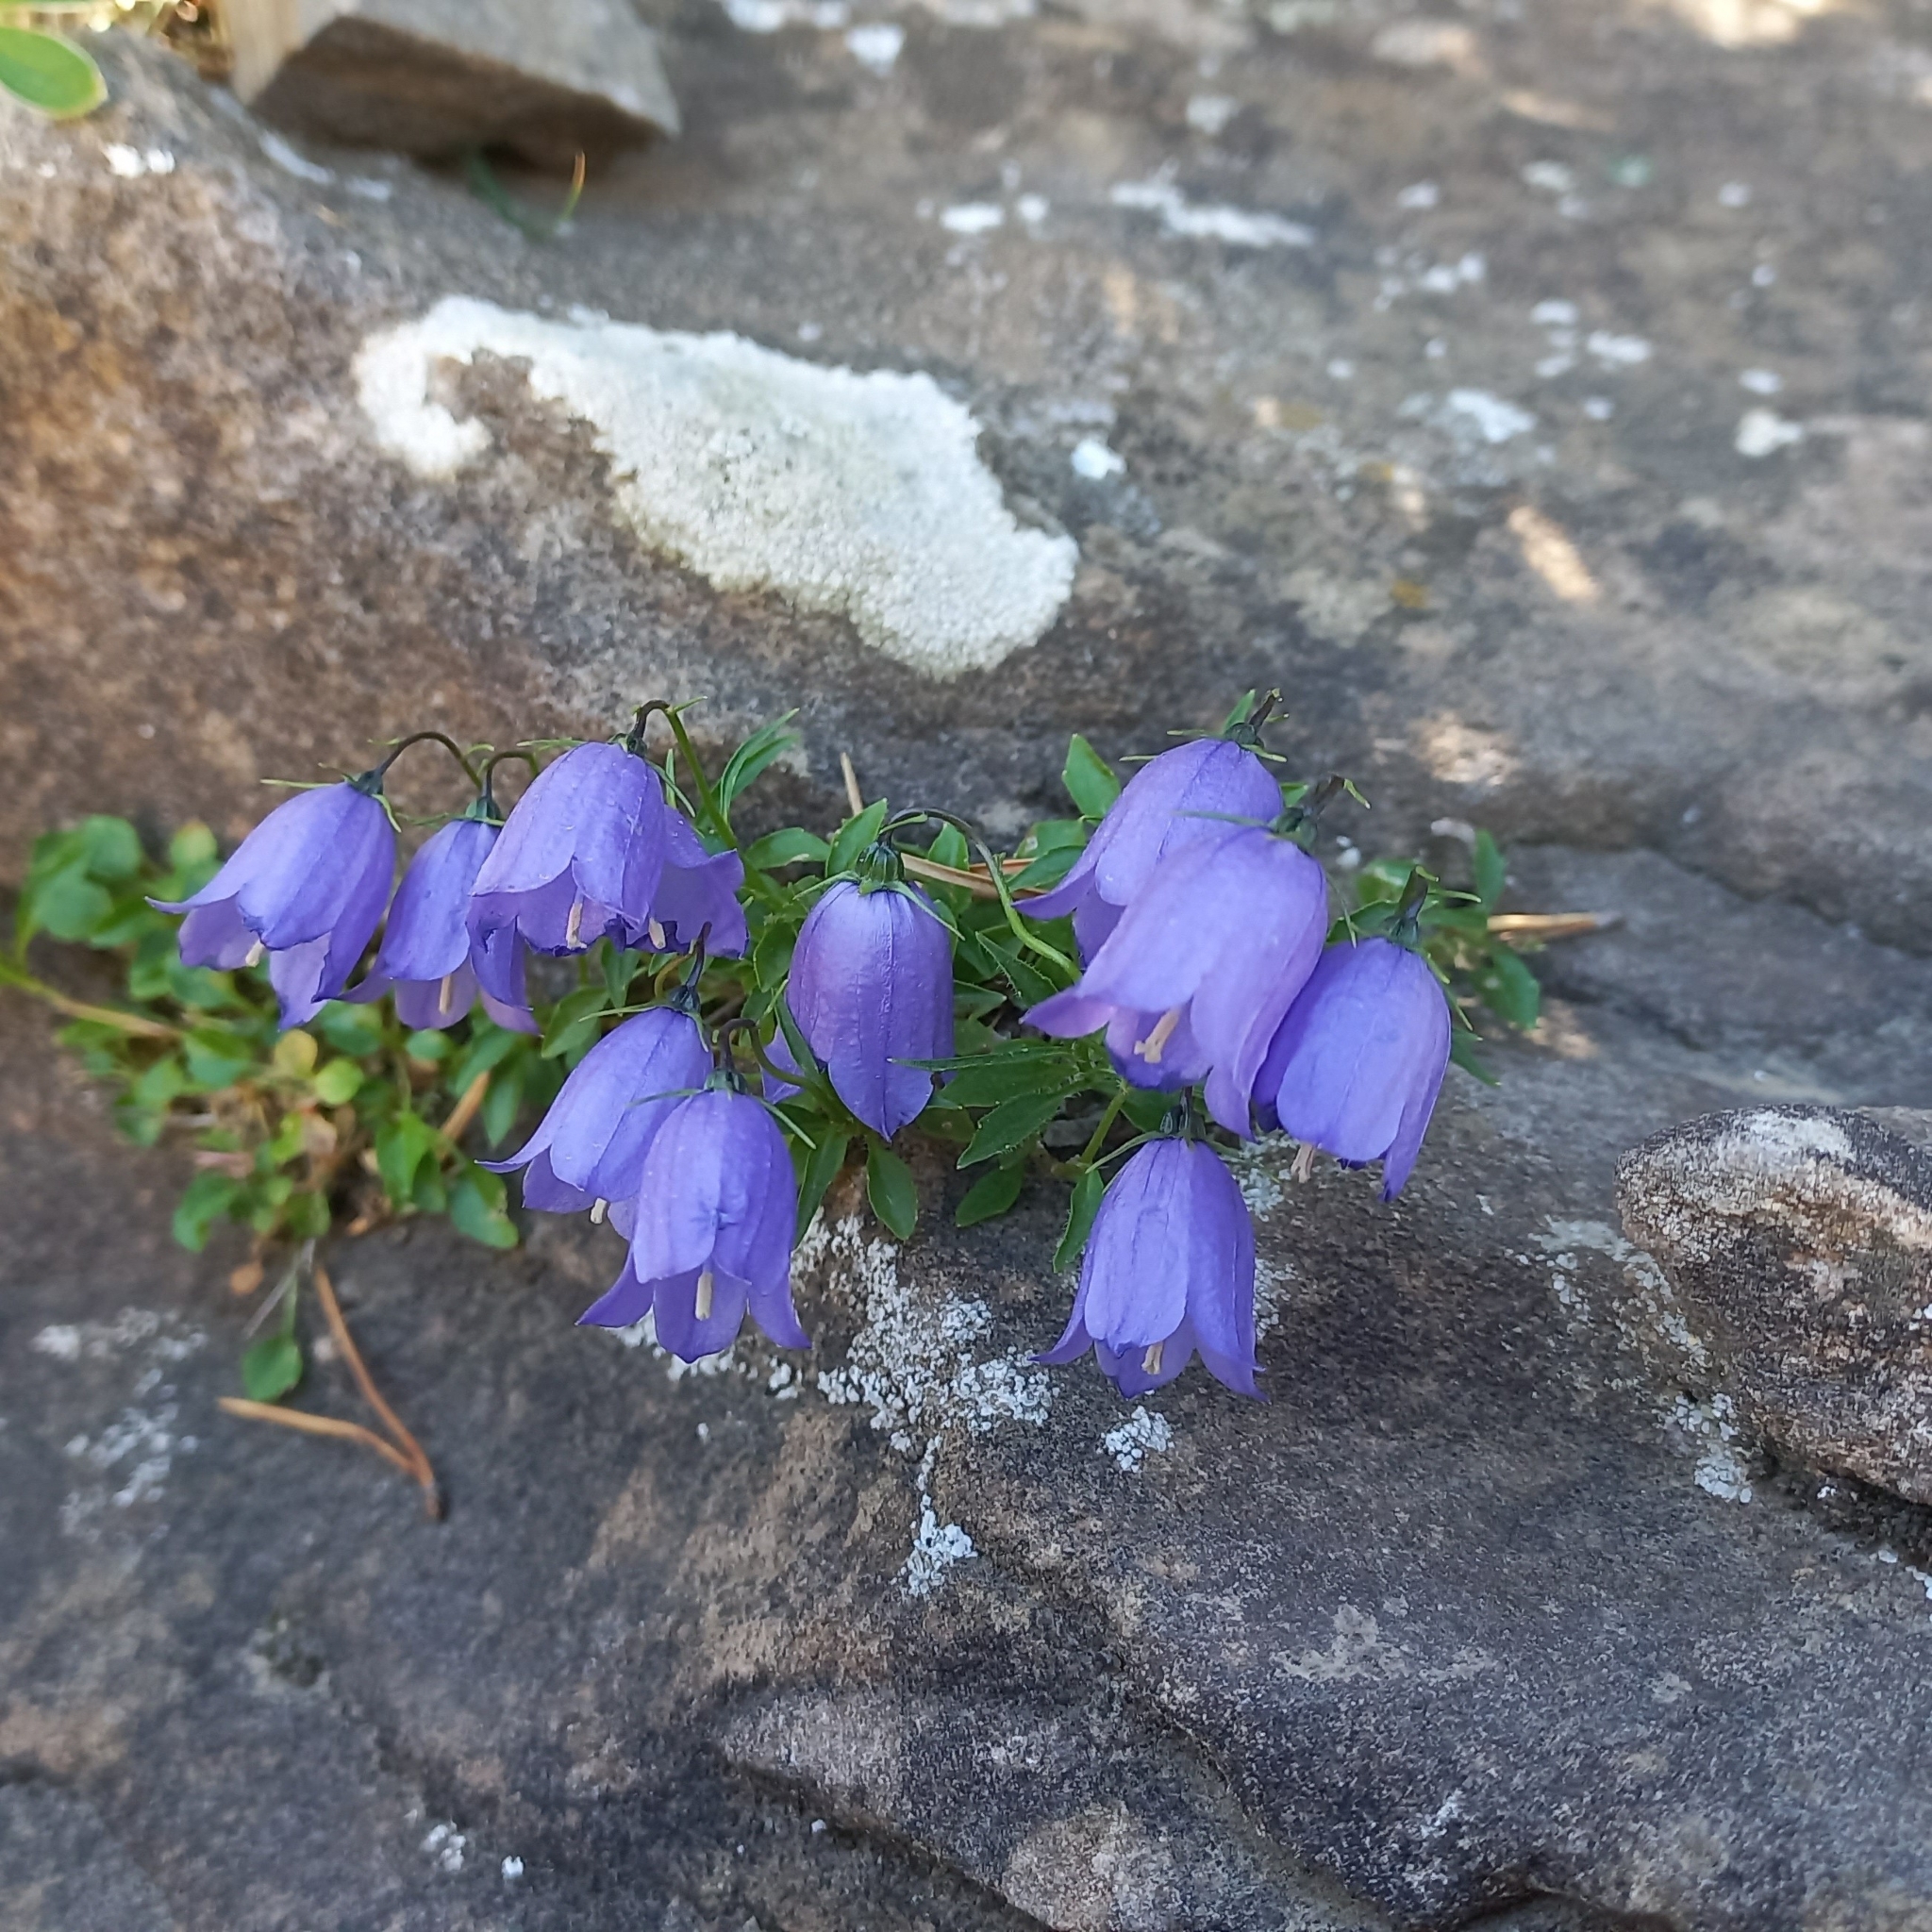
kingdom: Plantae
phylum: Tracheophyta
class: Magnoliopsida
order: Asterales
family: Campanulaceae
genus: Campanula
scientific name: Campanula cochleariifolia
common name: Fairies'-thimbles
